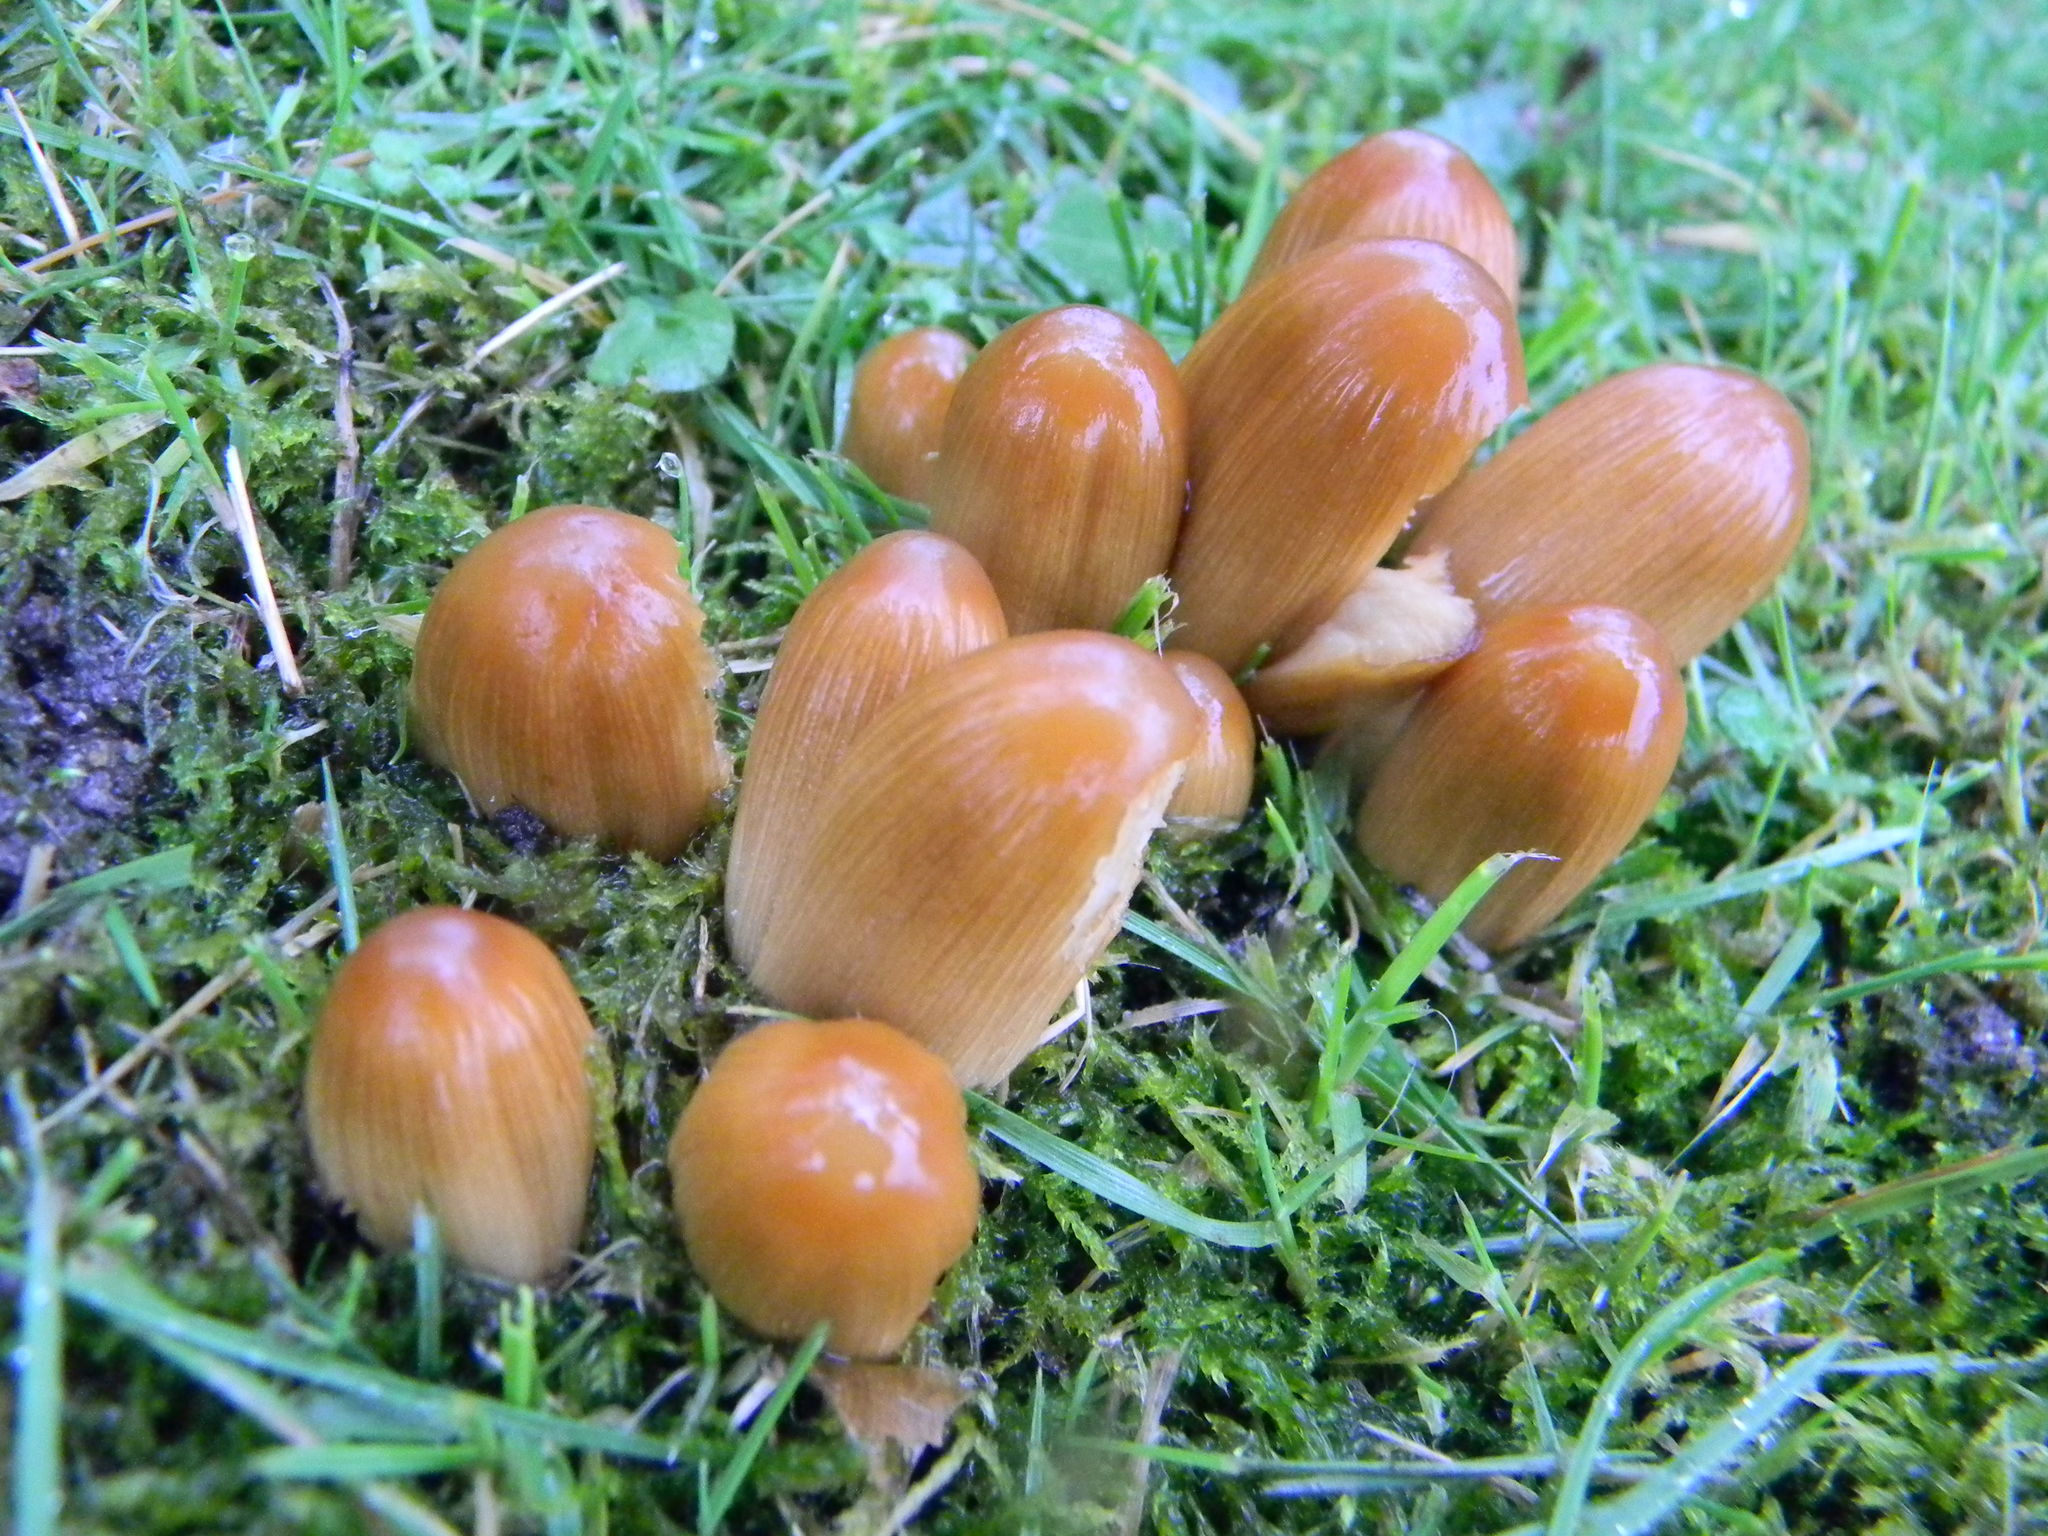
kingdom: Fungi
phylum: Basidiomycota
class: Agaricomycetes
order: Agaricales
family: Psathyrellaceae
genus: Coprinellus
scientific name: Coprinellus micaceus
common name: Glistening ink-cap
